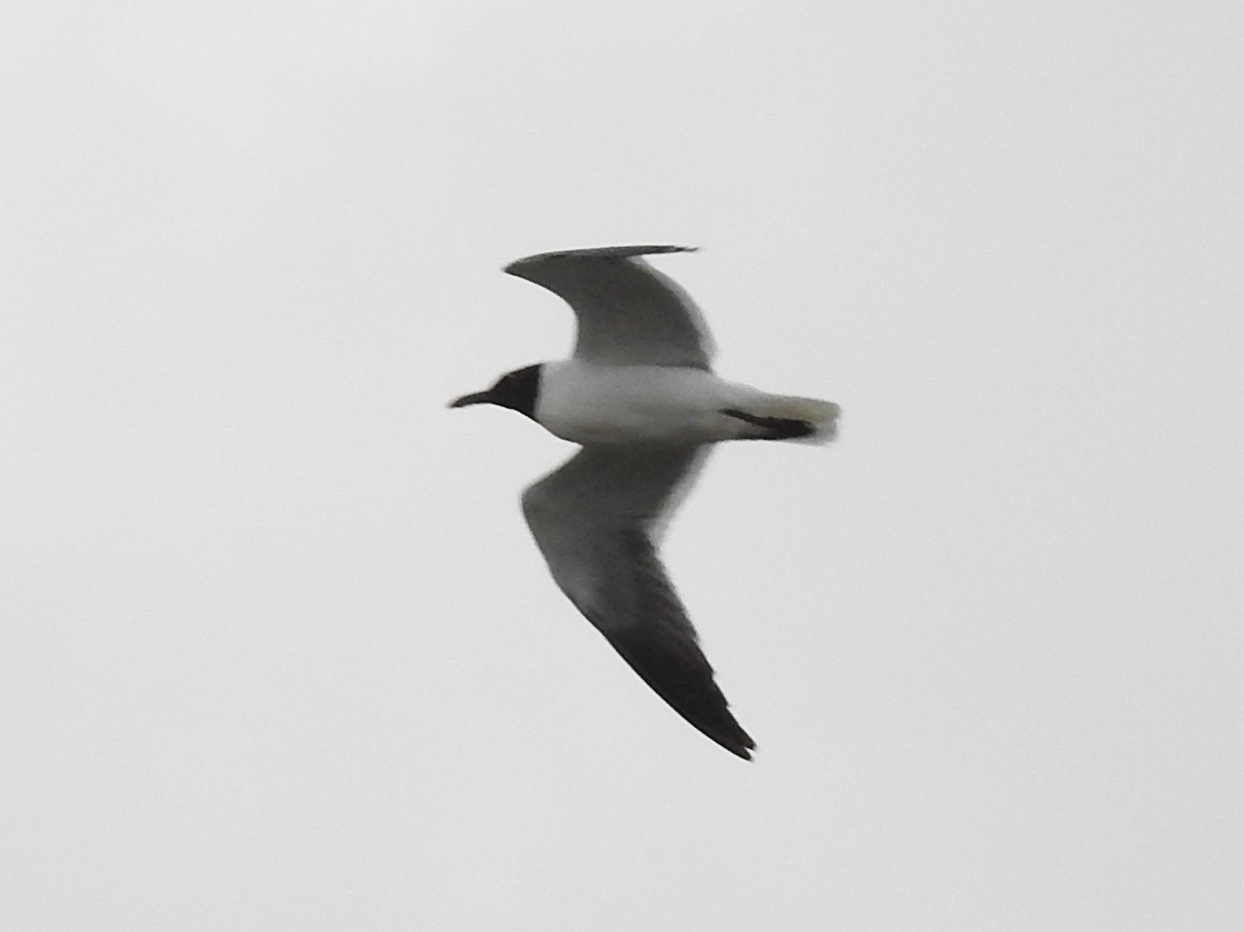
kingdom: Animalia
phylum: Chordata
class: Aves
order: Charadriiformes
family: Laridae
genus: Leucophaeus
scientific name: Leucophaeus atricilla
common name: Laughing gull
